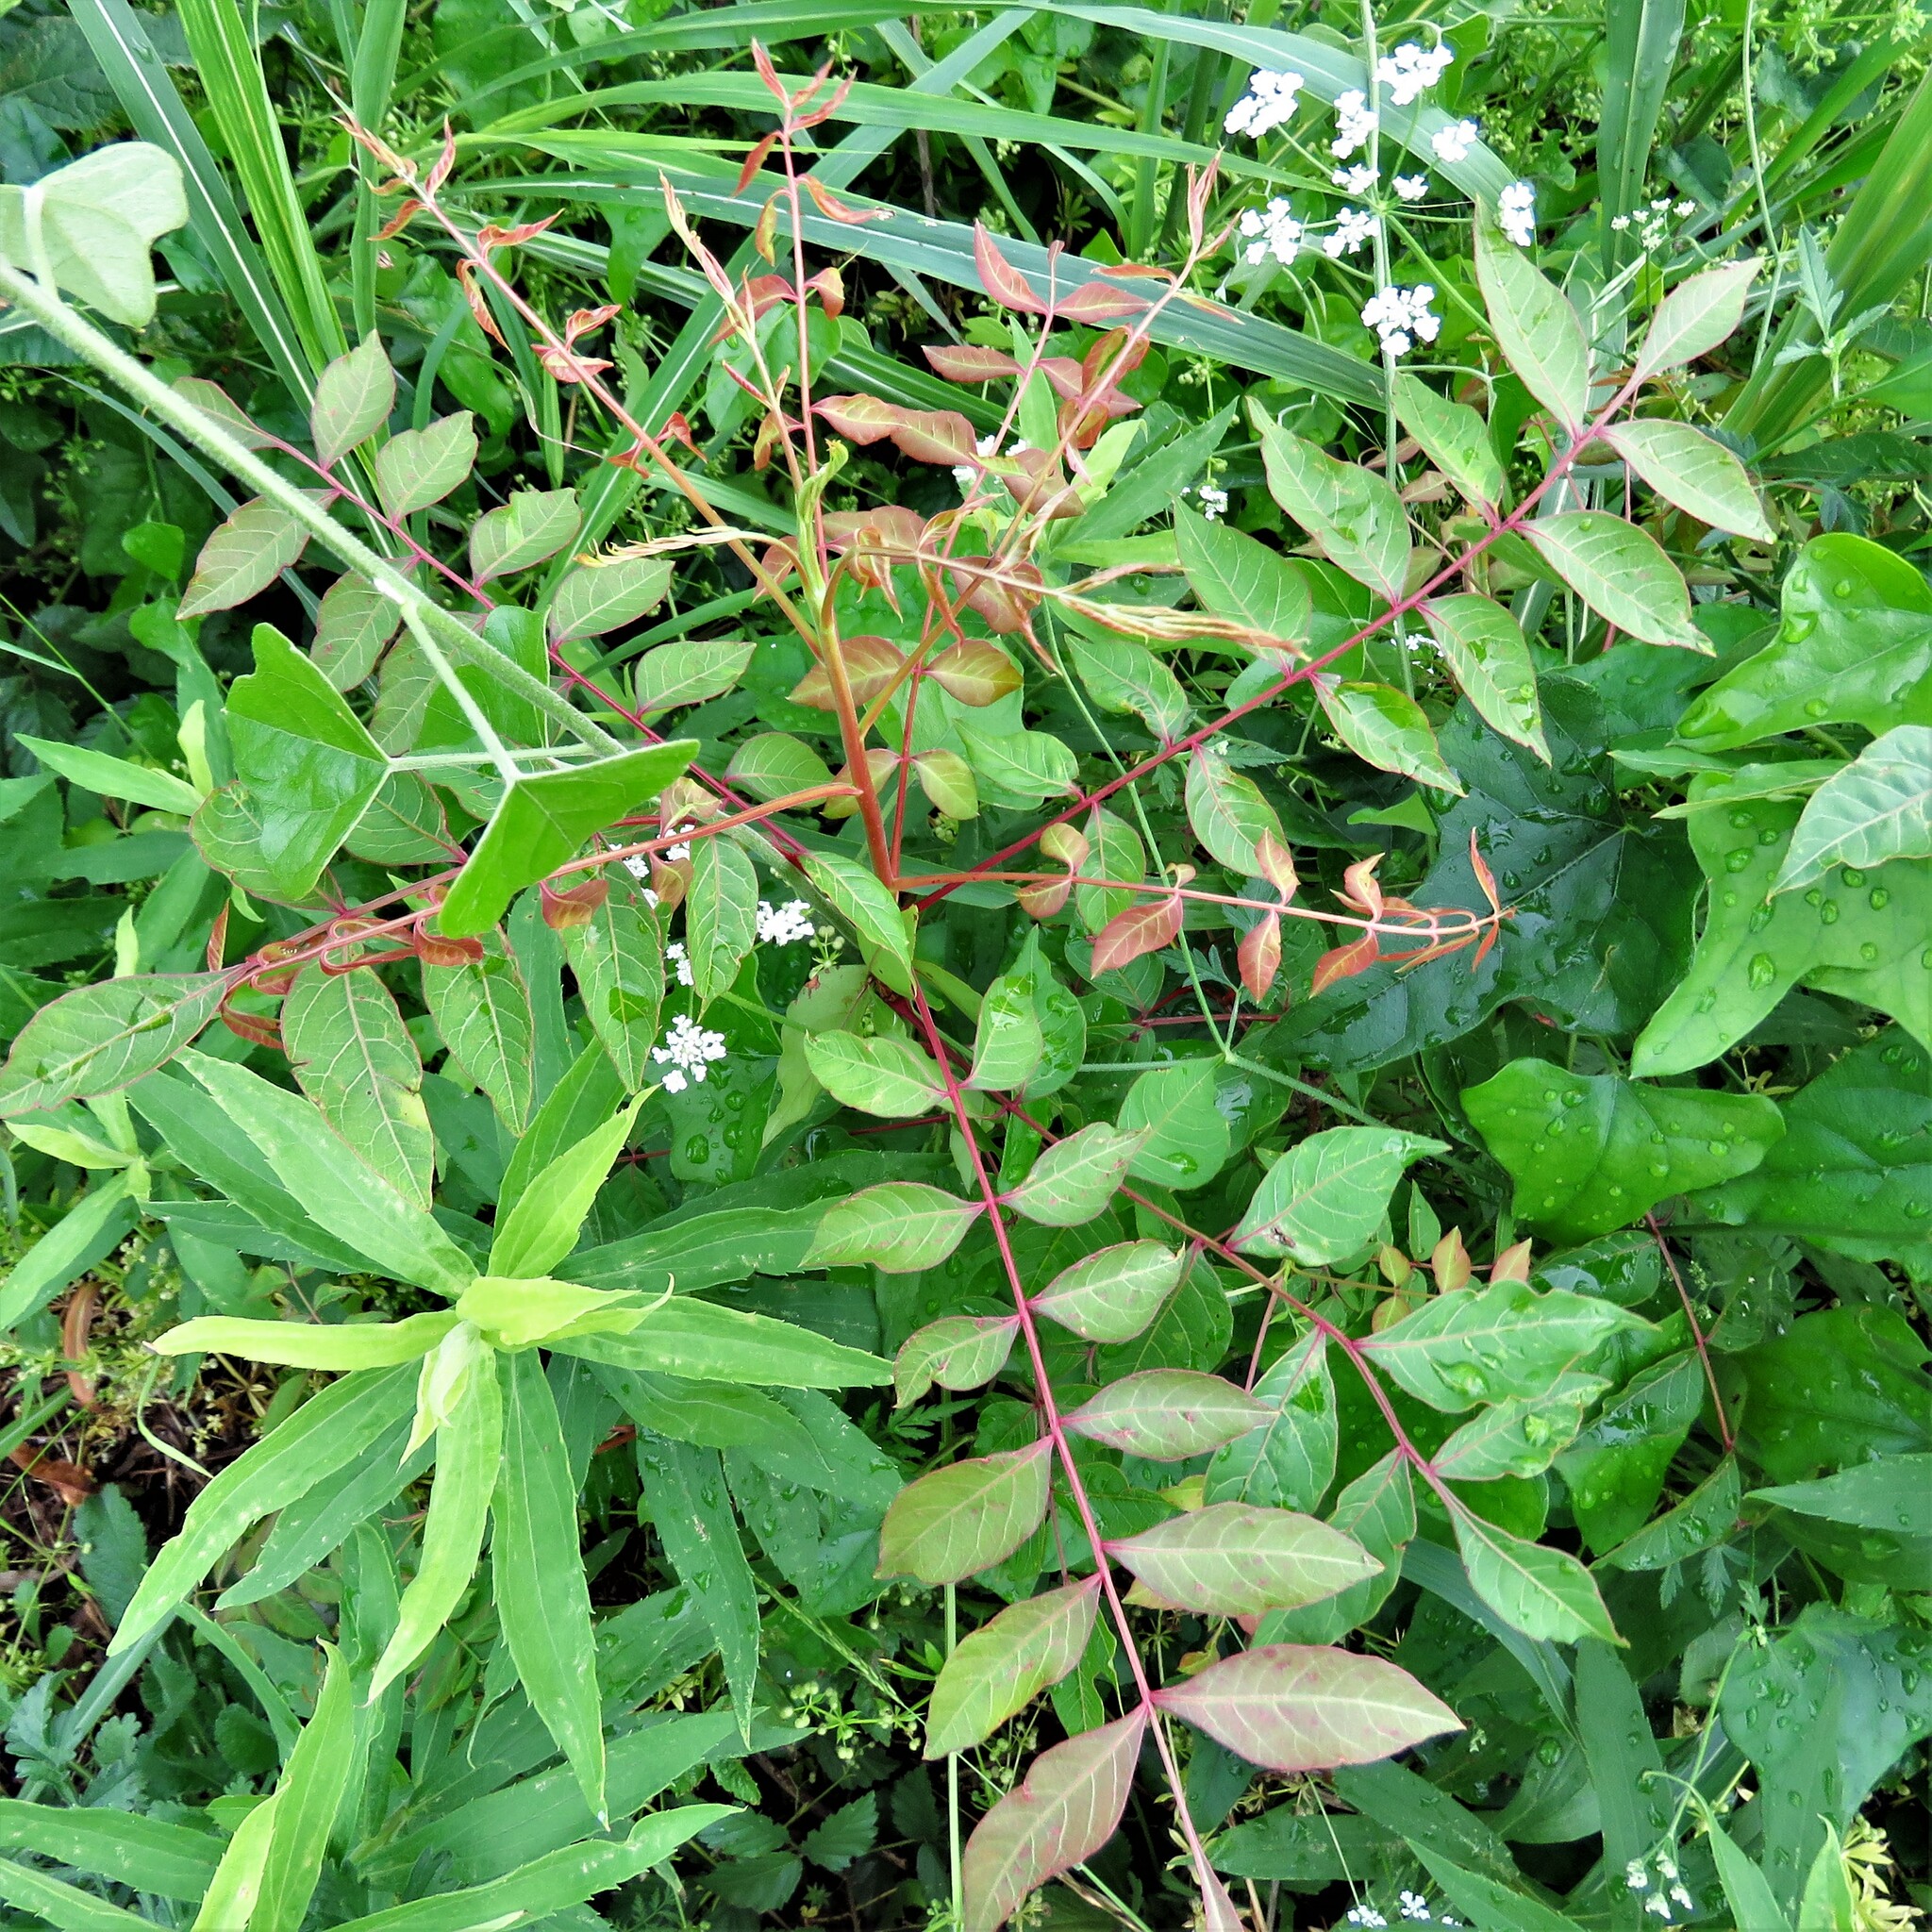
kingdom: Plantae
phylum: Tracheophyta
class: Magnoliopsida
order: Sapindales
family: Anacardiaceae
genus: Pistacia
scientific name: Pistacia chinensis
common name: Chinese pistache
